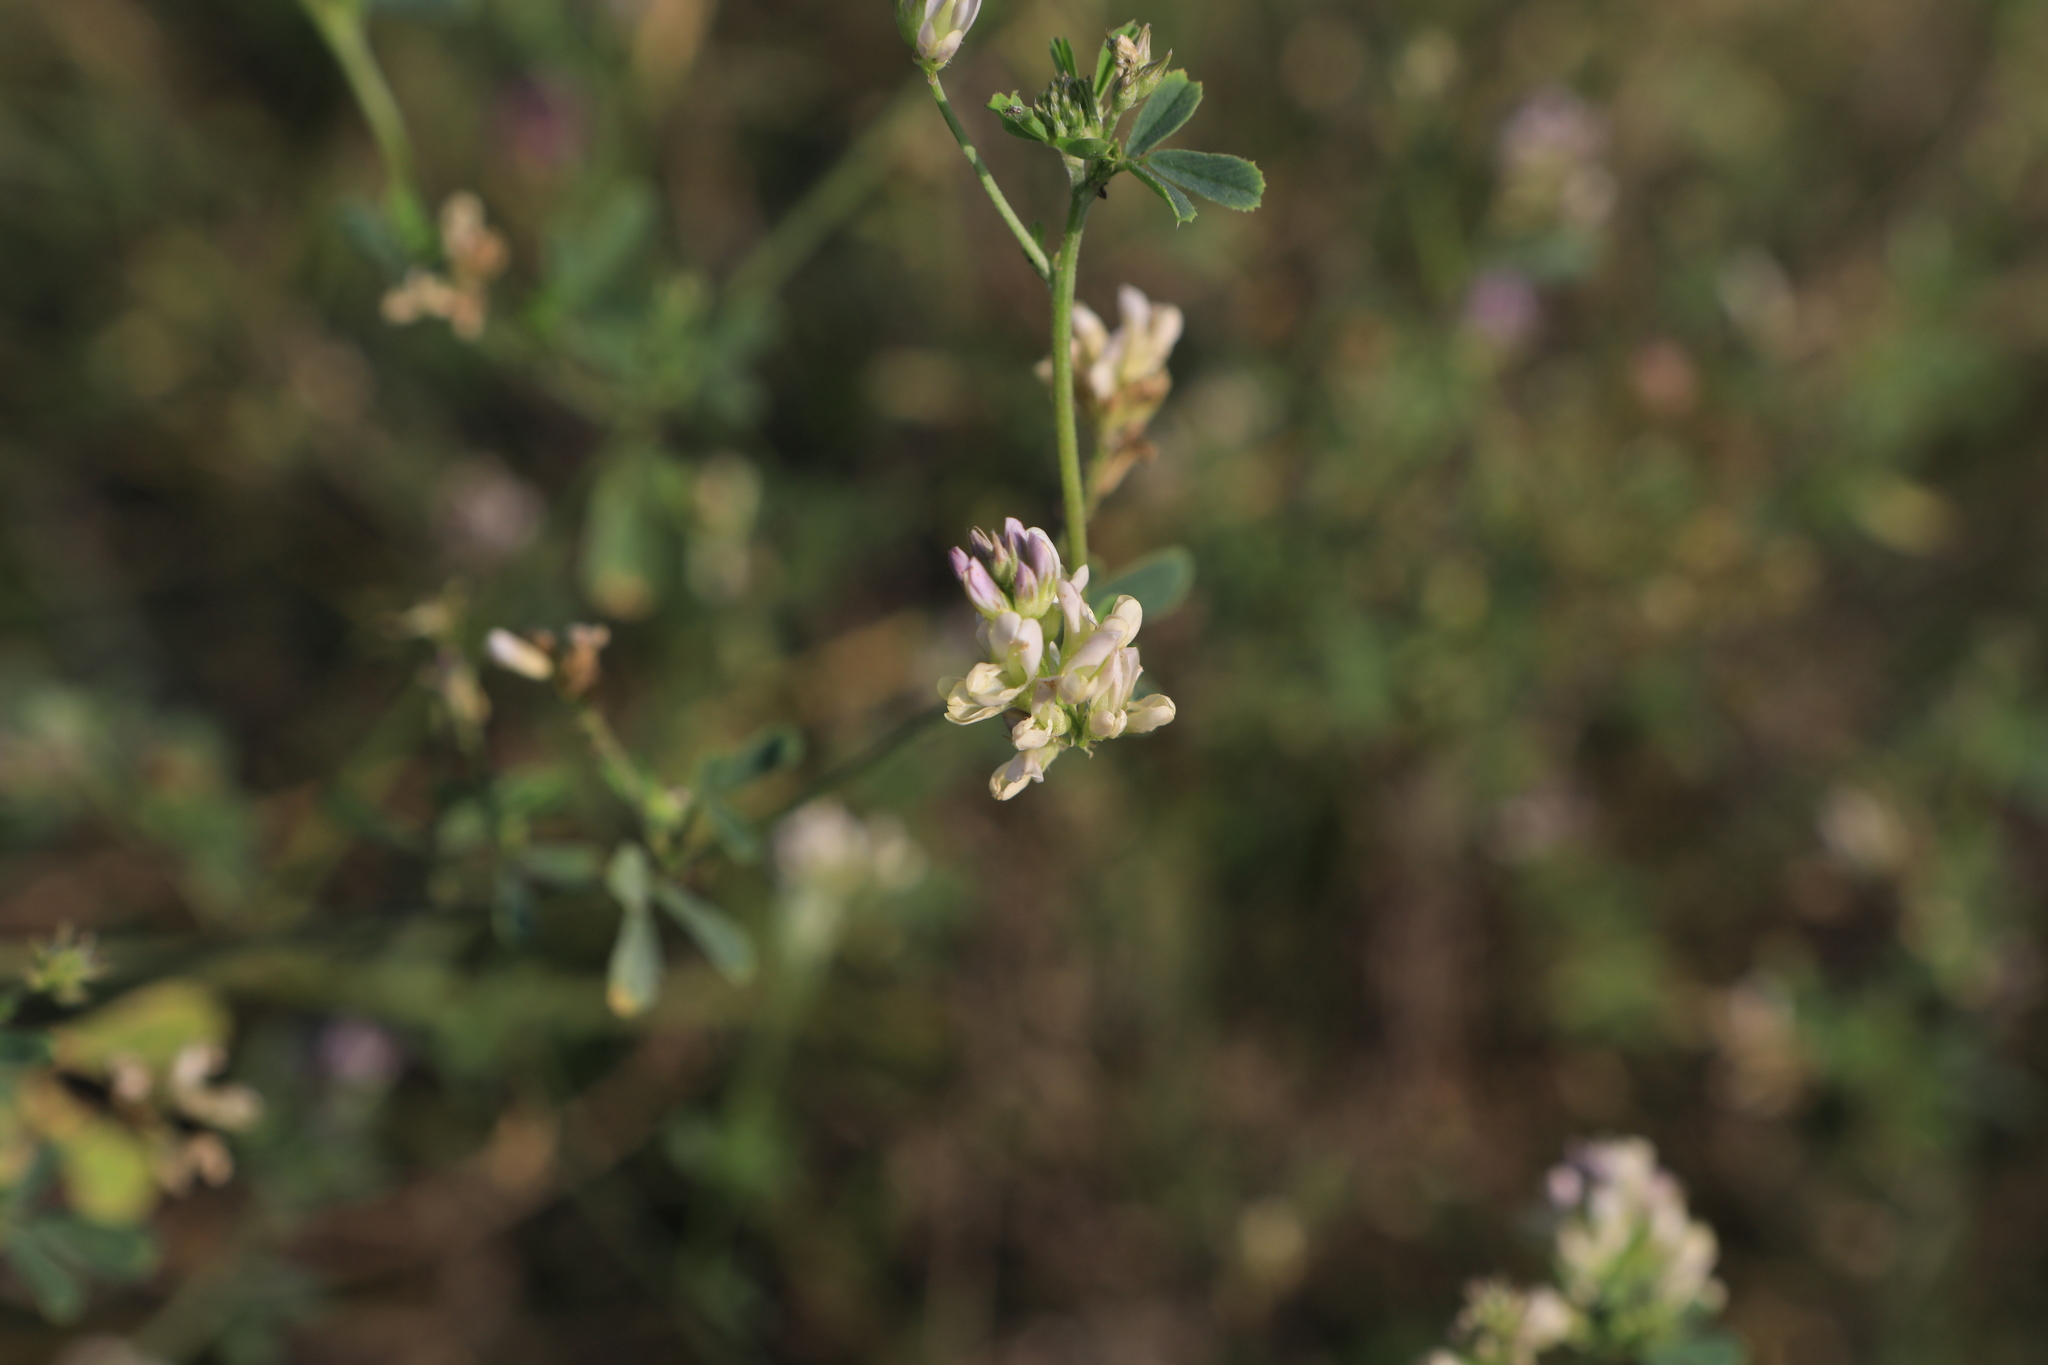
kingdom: Plantae
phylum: Tracheophyta
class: Magnoliopsida
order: Fabales
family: Fabaceae
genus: Medicago
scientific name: Medicago varia
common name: Sand lucerne
